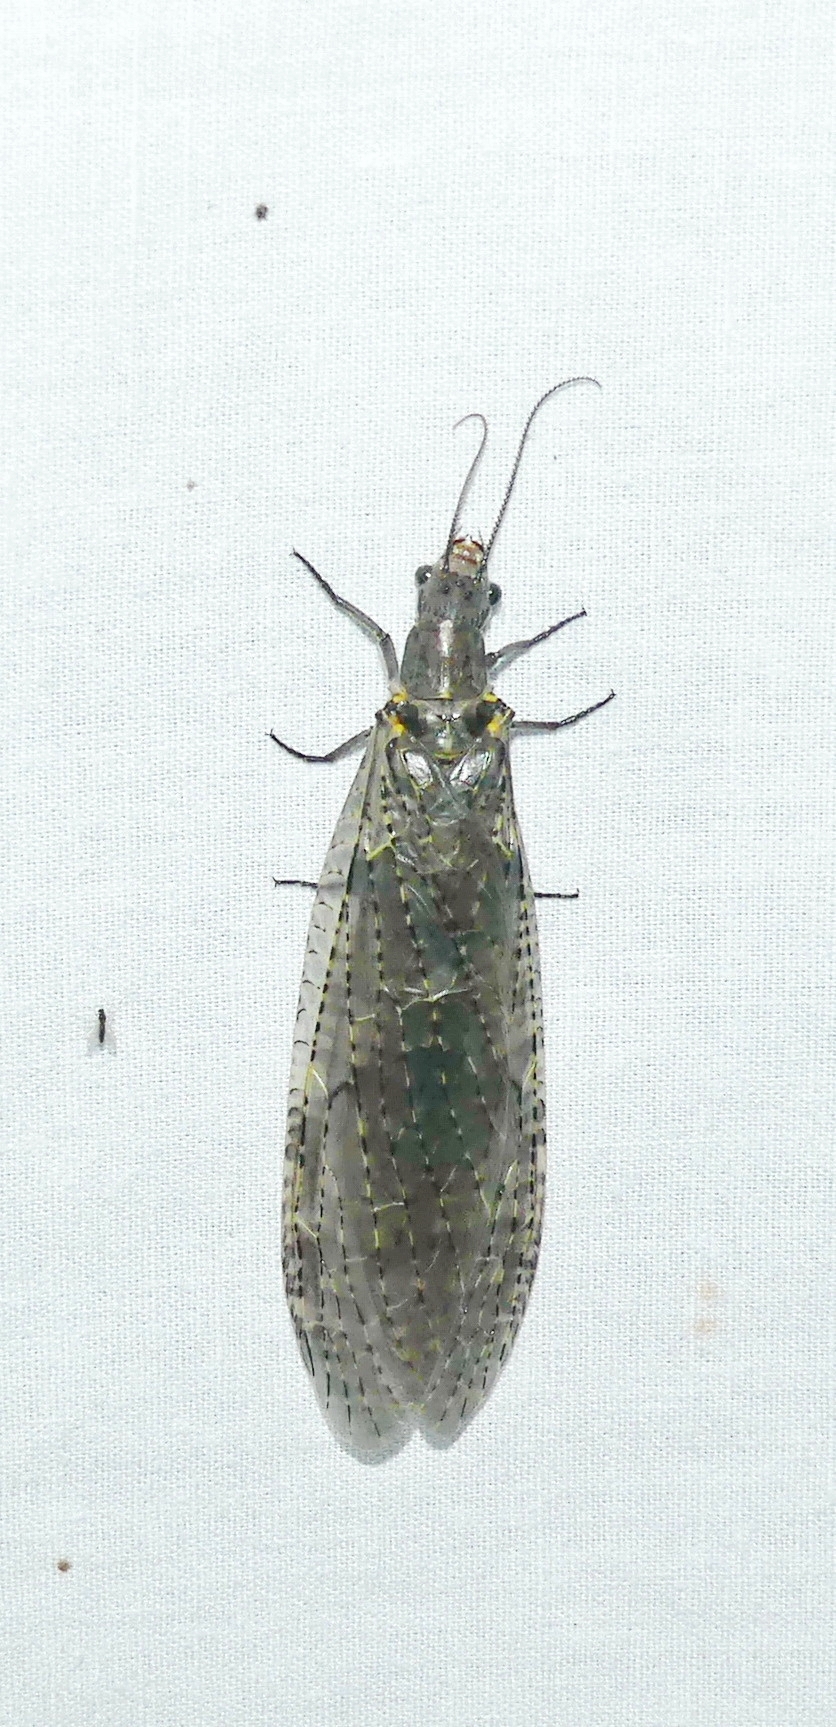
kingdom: Animalia
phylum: Arthropoda
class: Insecta
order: Megaloptera
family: Corydalidae
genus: Chauliodes
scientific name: Chauliodes rastricornis
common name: Spring fishfly
